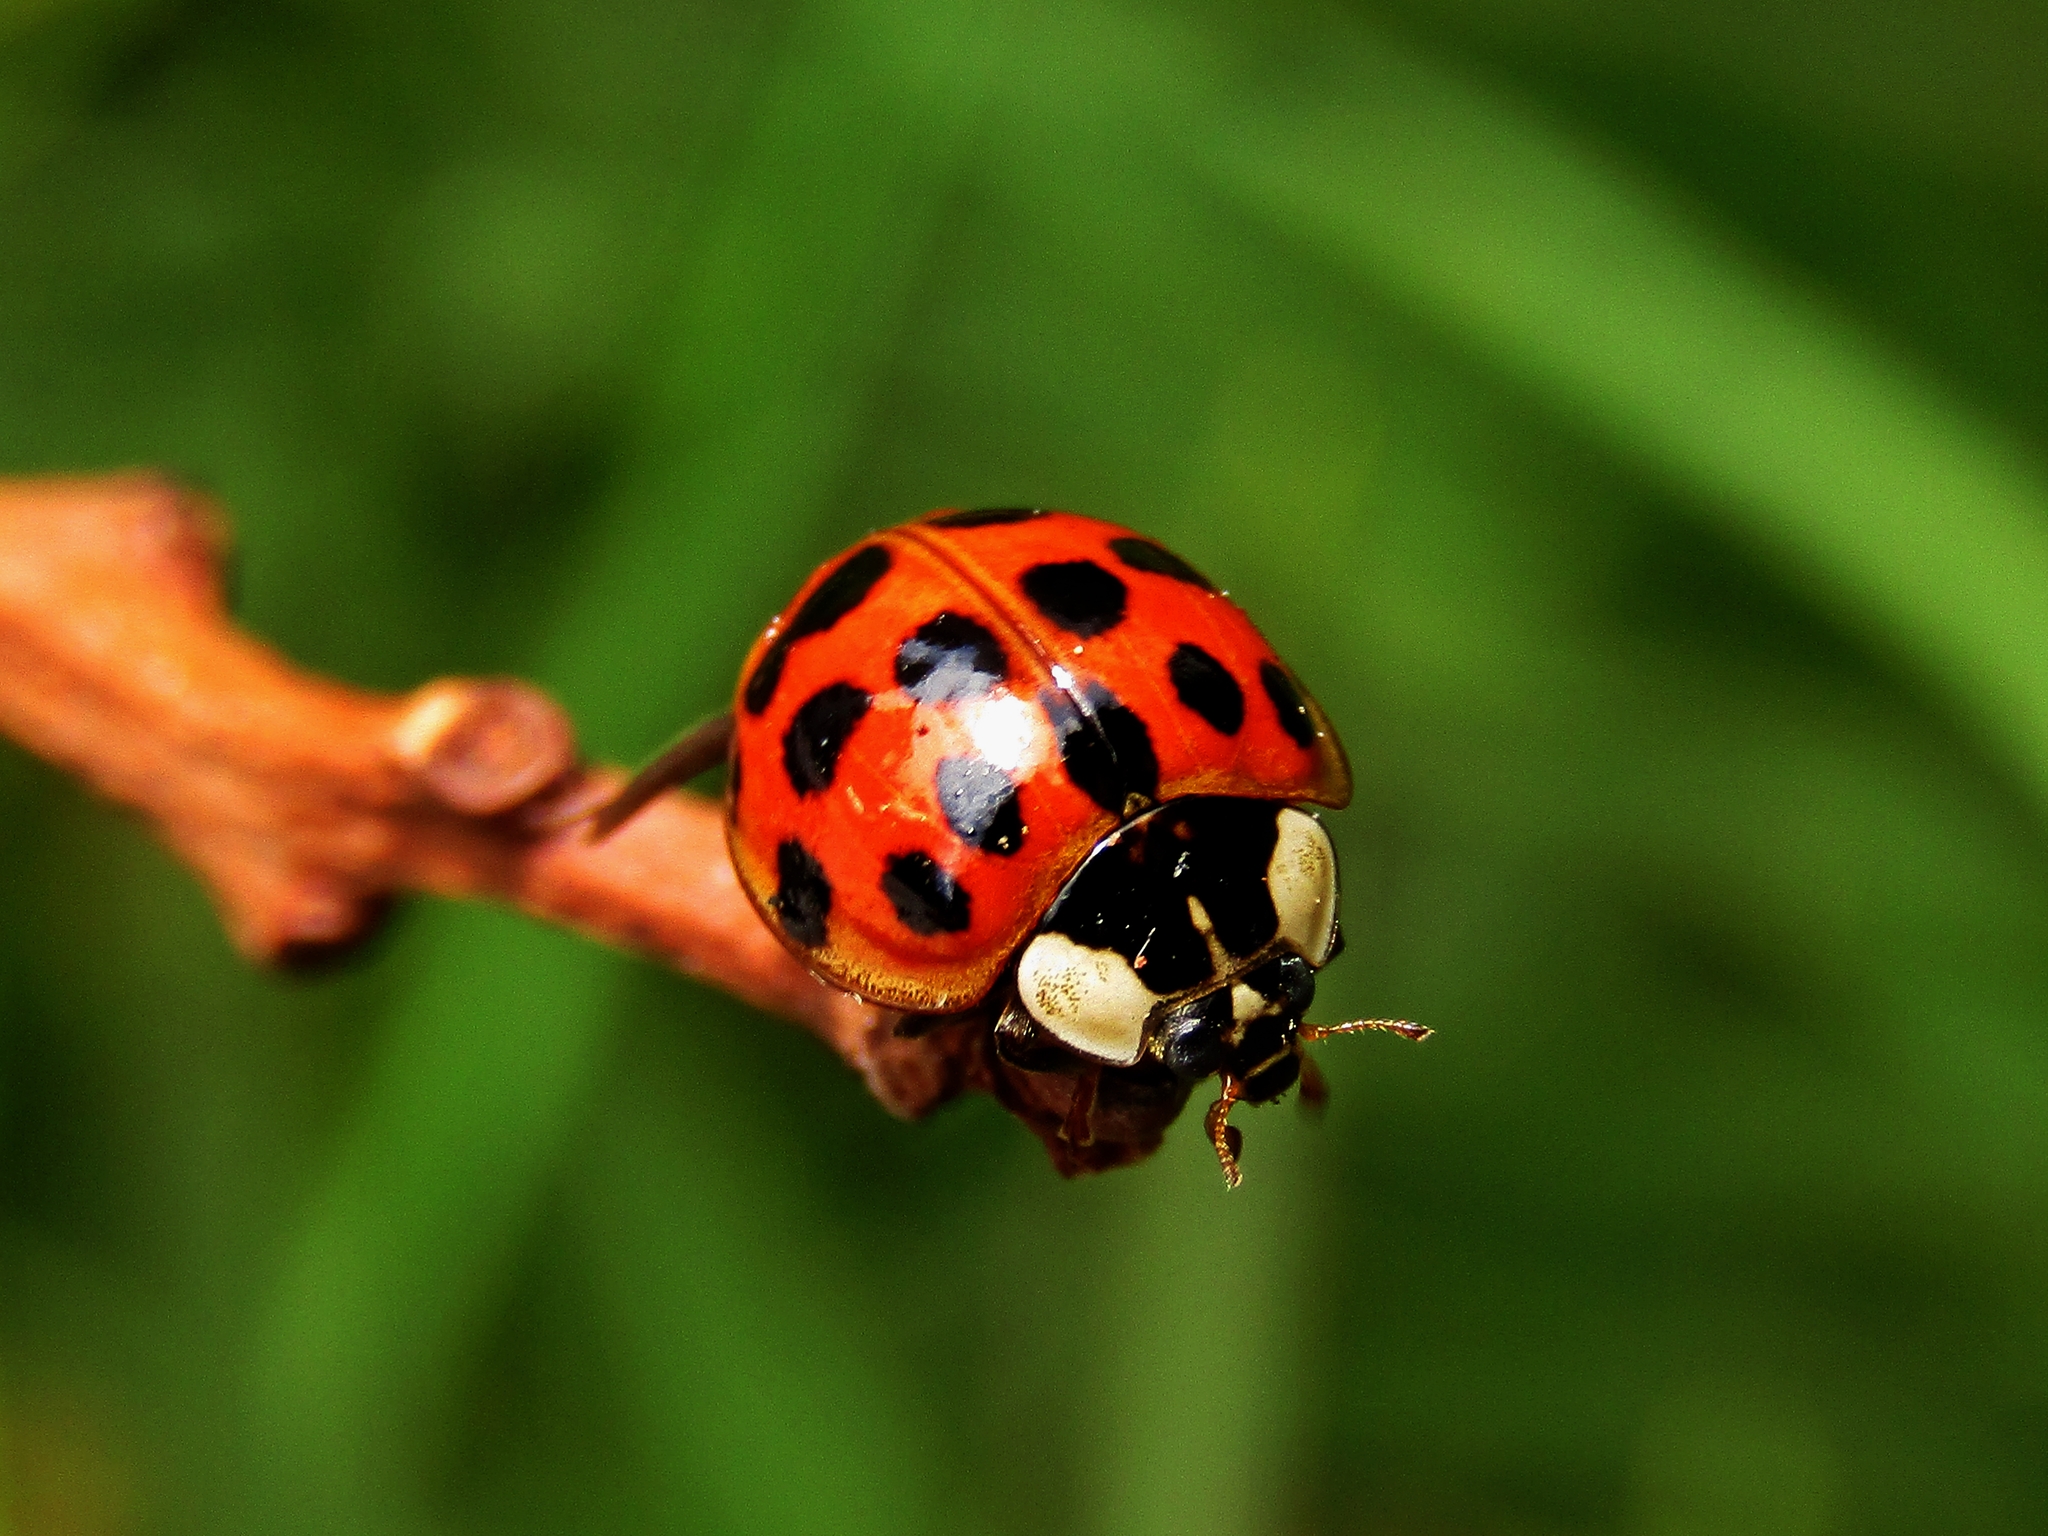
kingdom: Animalia
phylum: Arthropoda
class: Insecta
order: Coleoptera
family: Coccinellidae
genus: Harmonia
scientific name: Harmonia axyridis
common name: Harlequin ladybird
